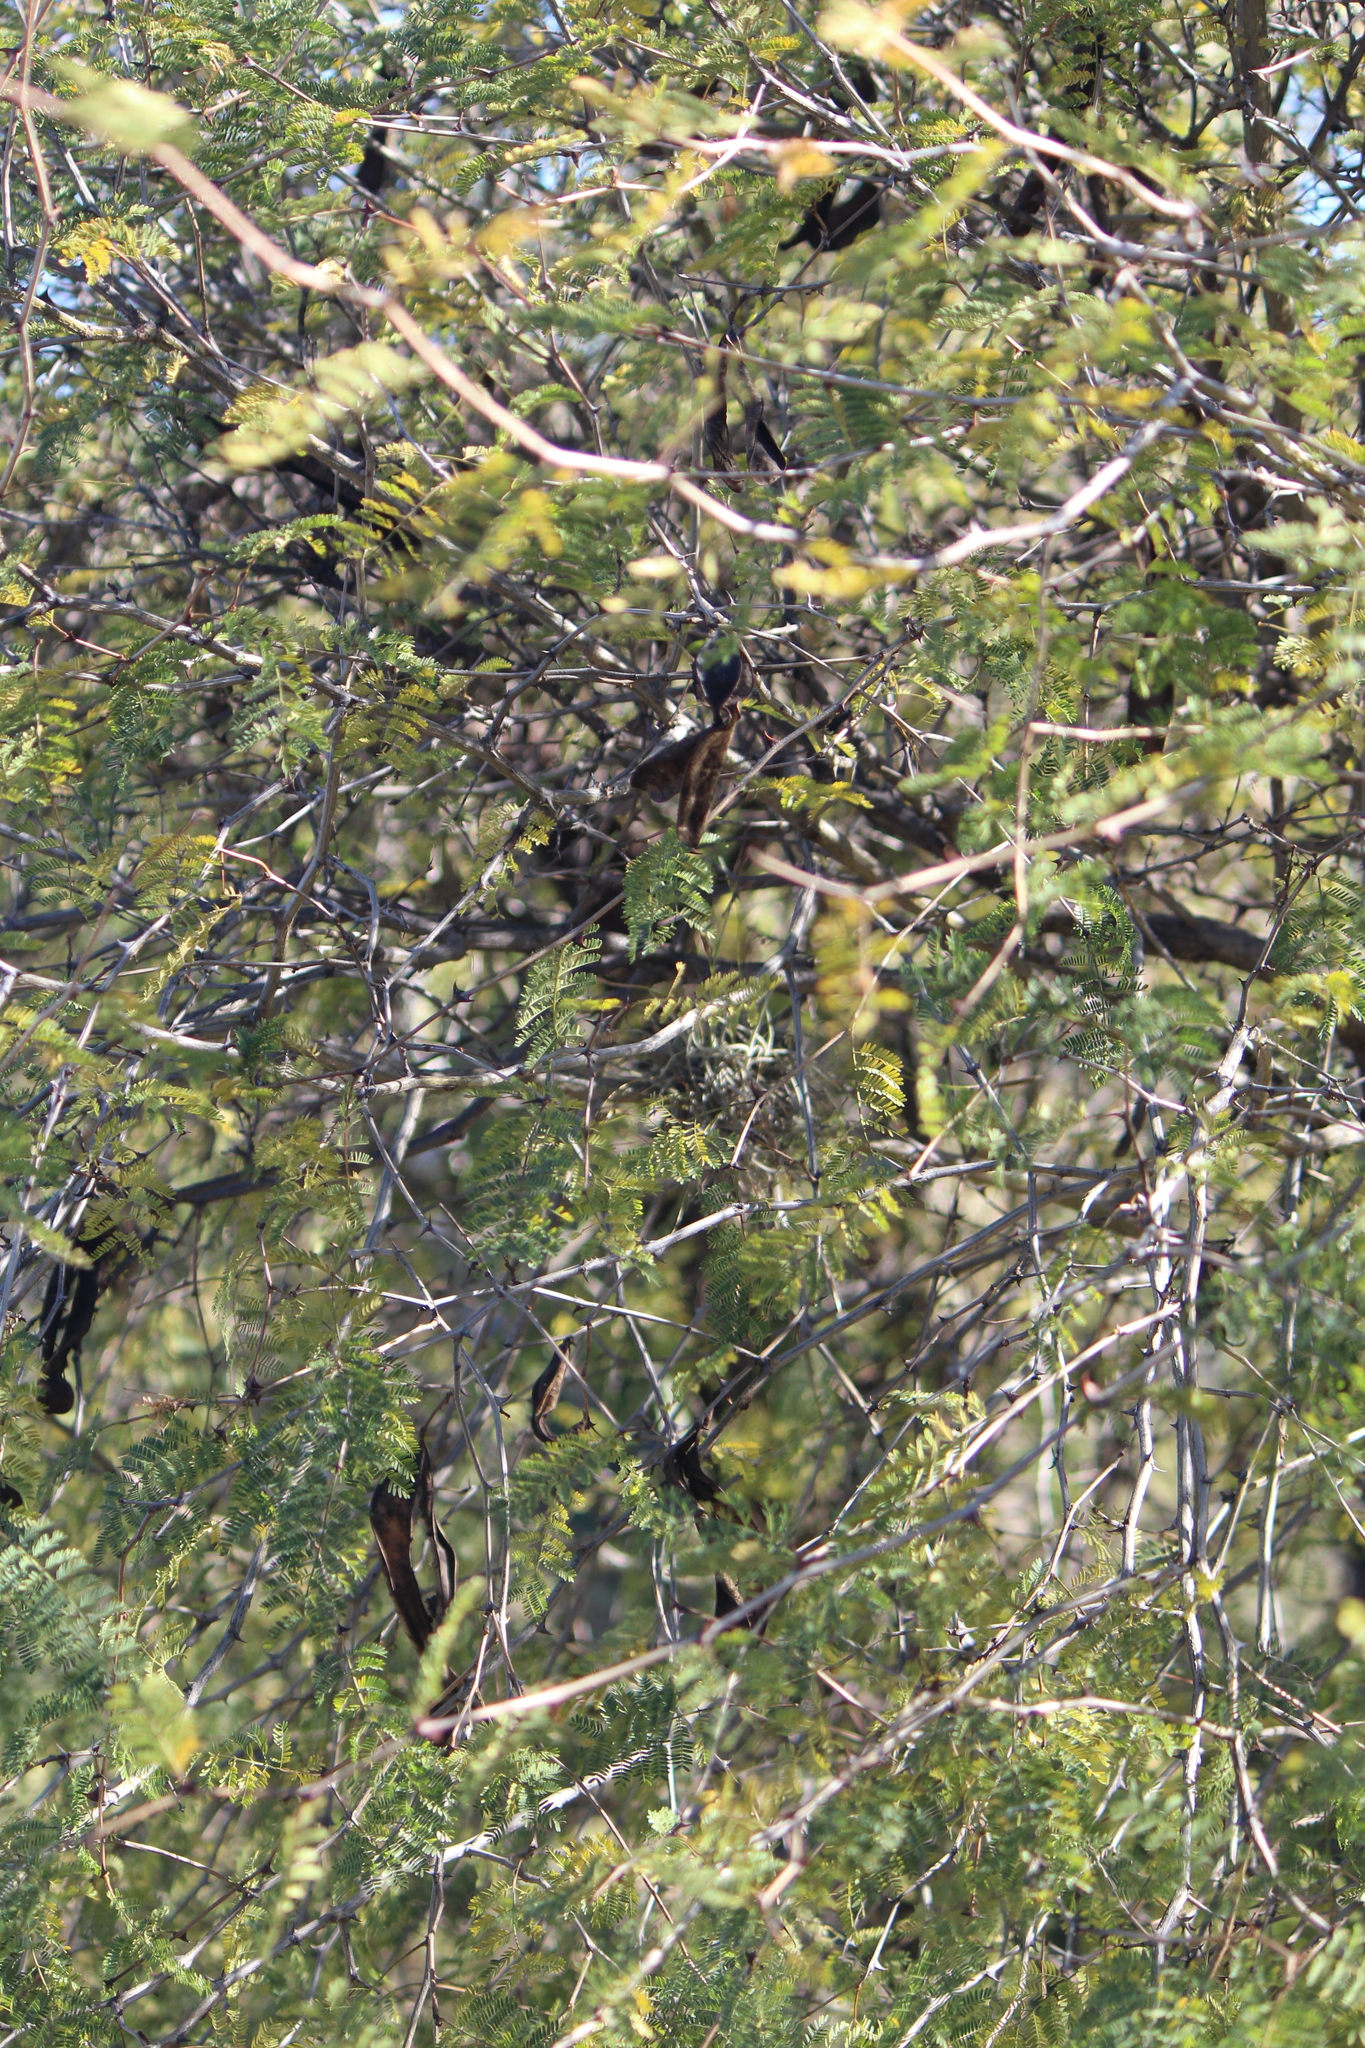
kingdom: Plantae
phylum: Tracheophyta
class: Magnoliopsida
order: Fabales
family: Fabaceae
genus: Acaciella
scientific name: Acaciella angustissima
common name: Prairie acacia
